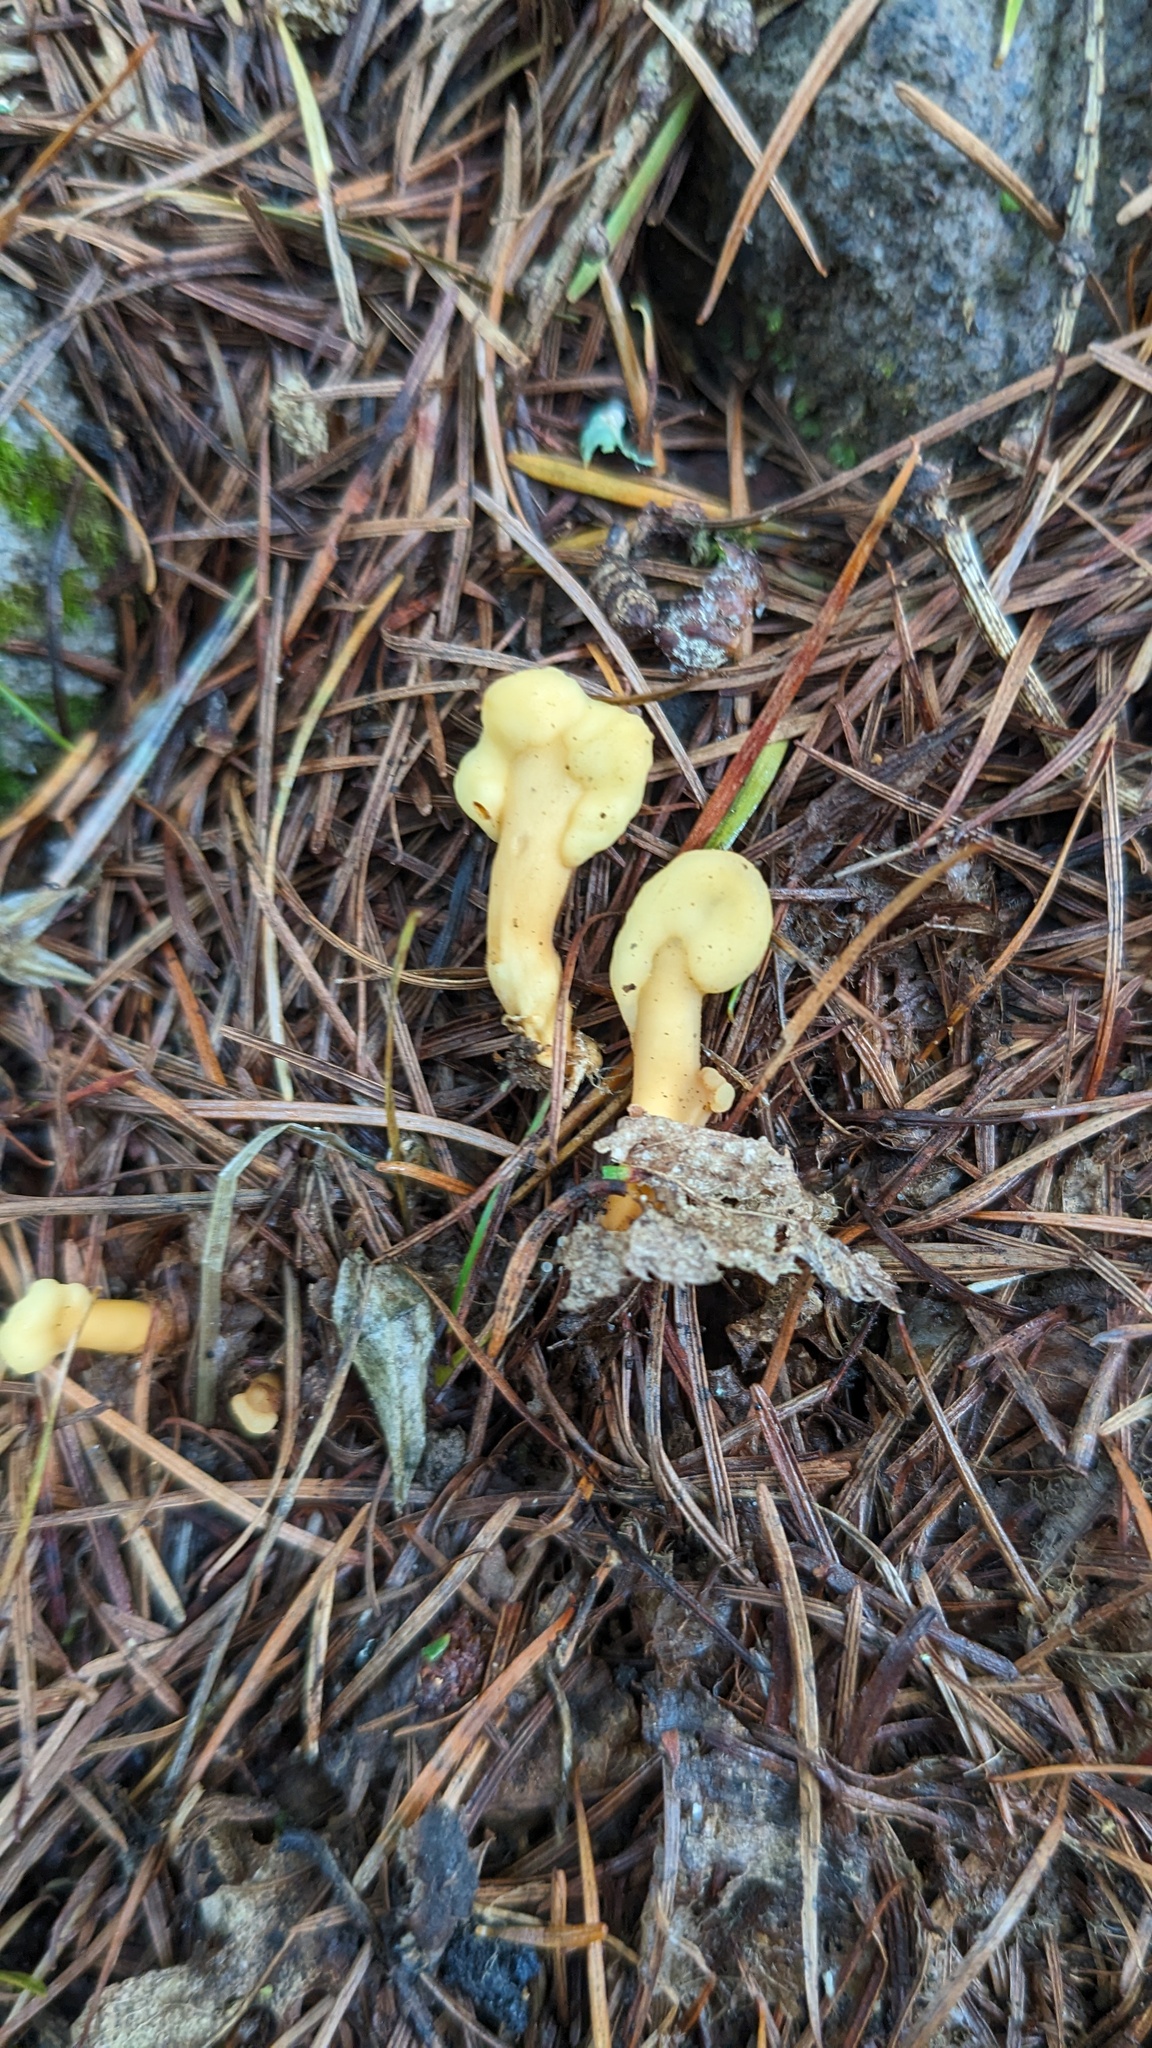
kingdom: Fungi
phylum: Ascomycota
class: Leotiomycetes
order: Rhytismatales
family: Cudoniaceae
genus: Spathularia
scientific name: Spathularia flavida
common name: Yellow fan
